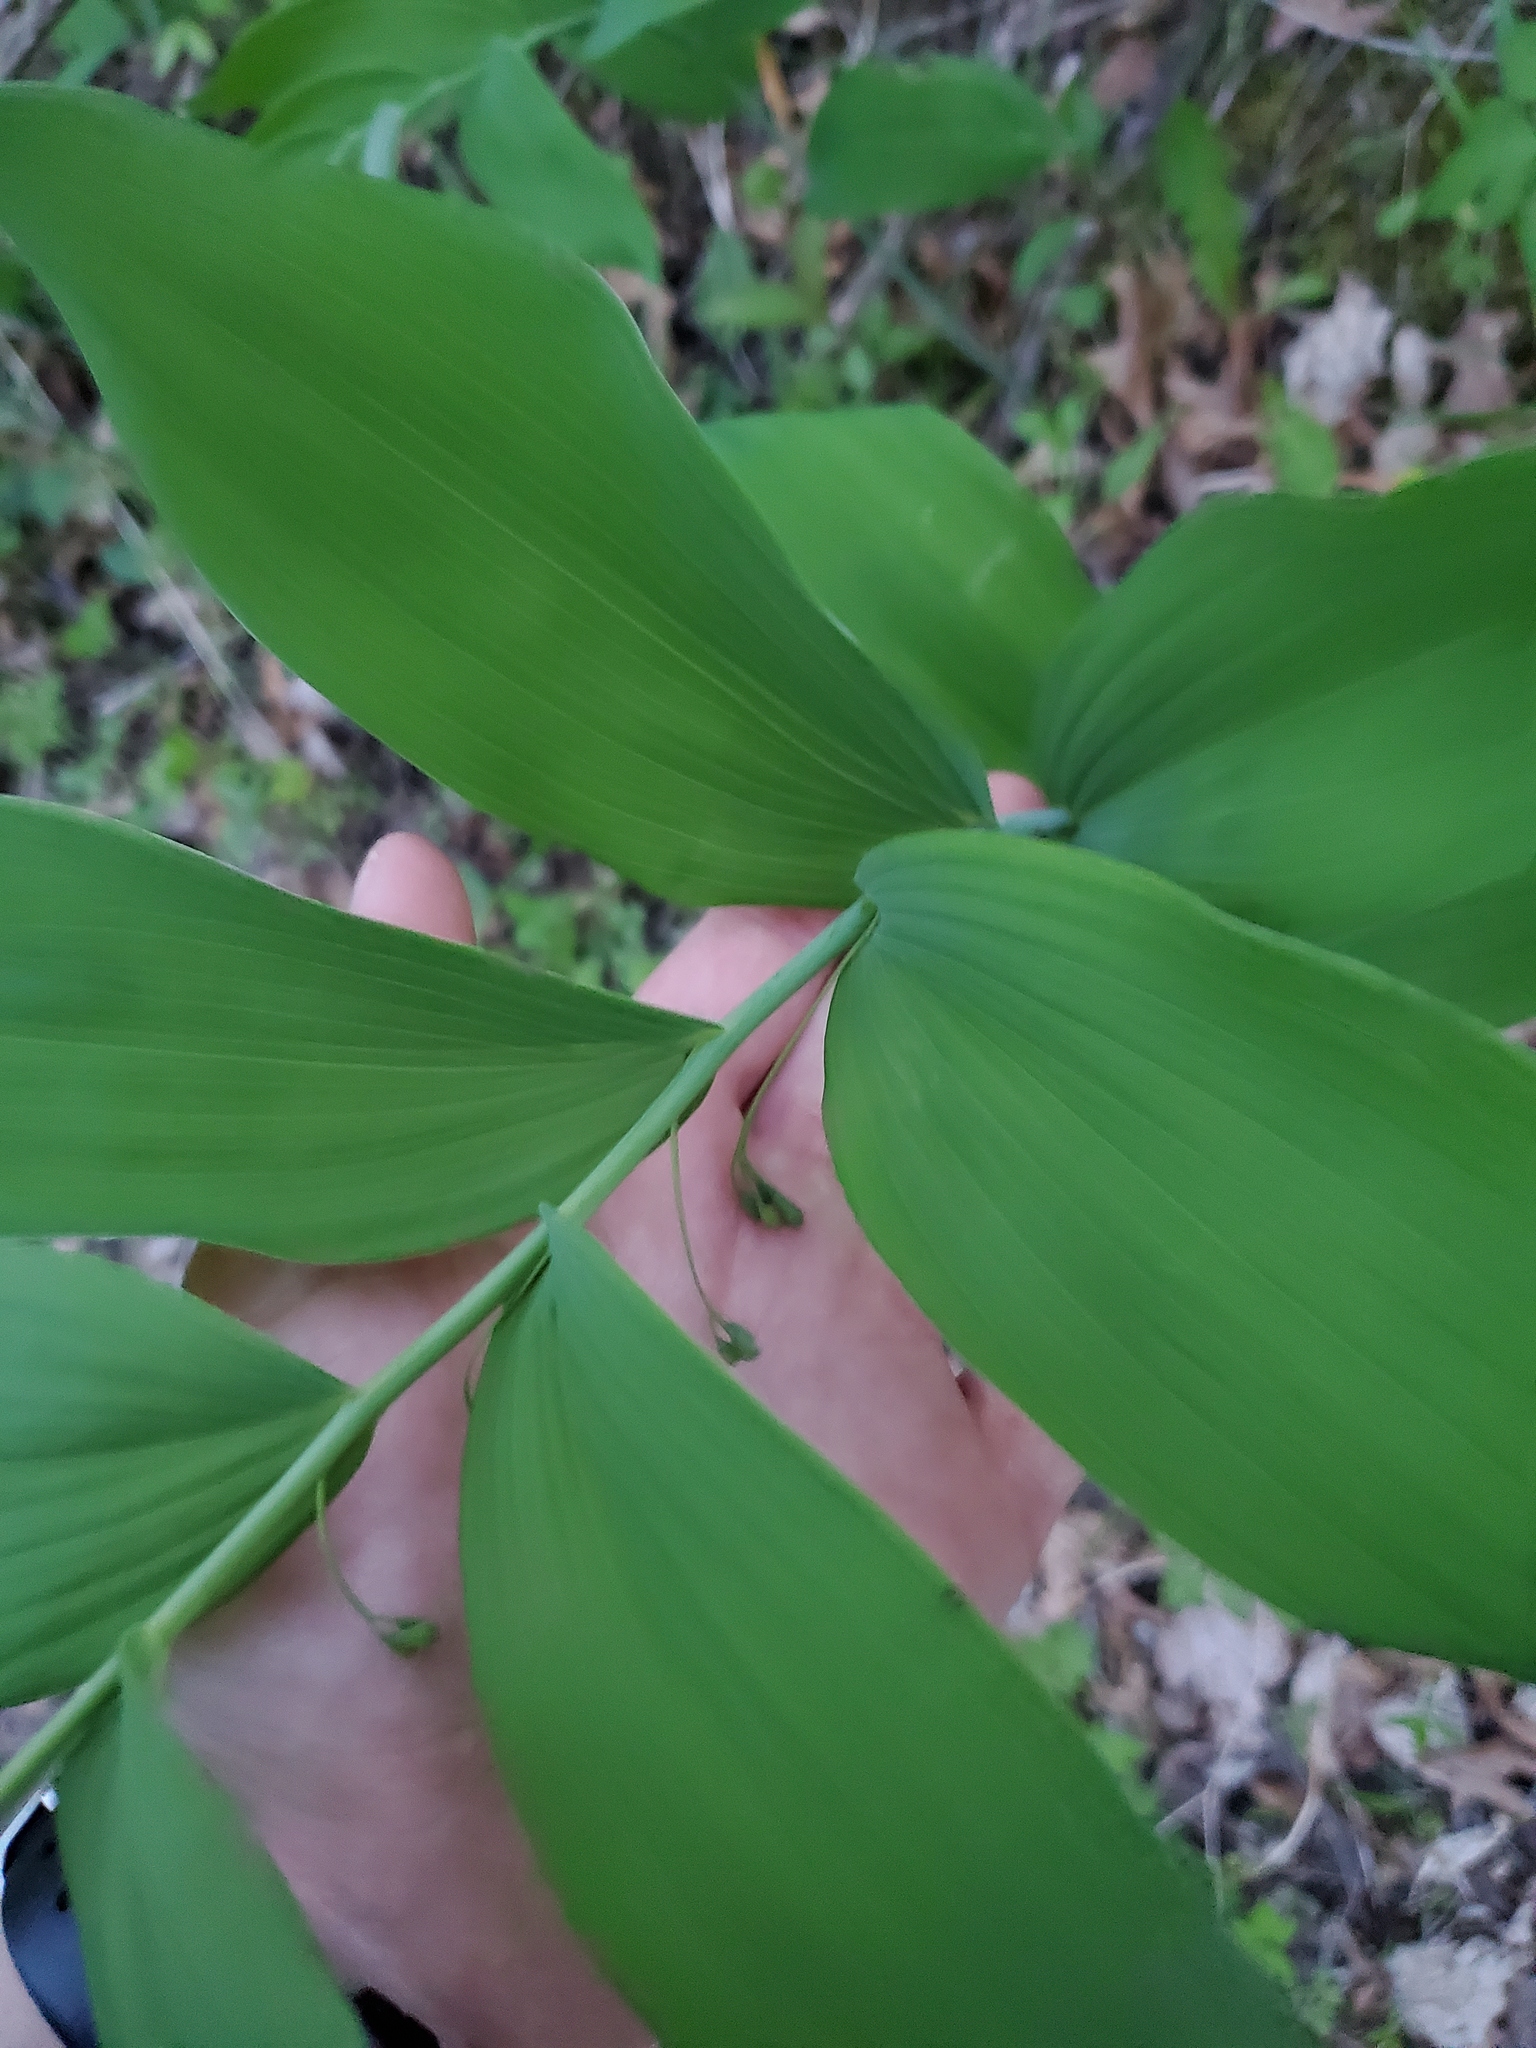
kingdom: Plantae
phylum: Tracheophyta
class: Liliopsida
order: Asparagales
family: Asparagaceae
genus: Polygonatum
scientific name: Polygonatum biflorum
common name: American solomon's-seal
